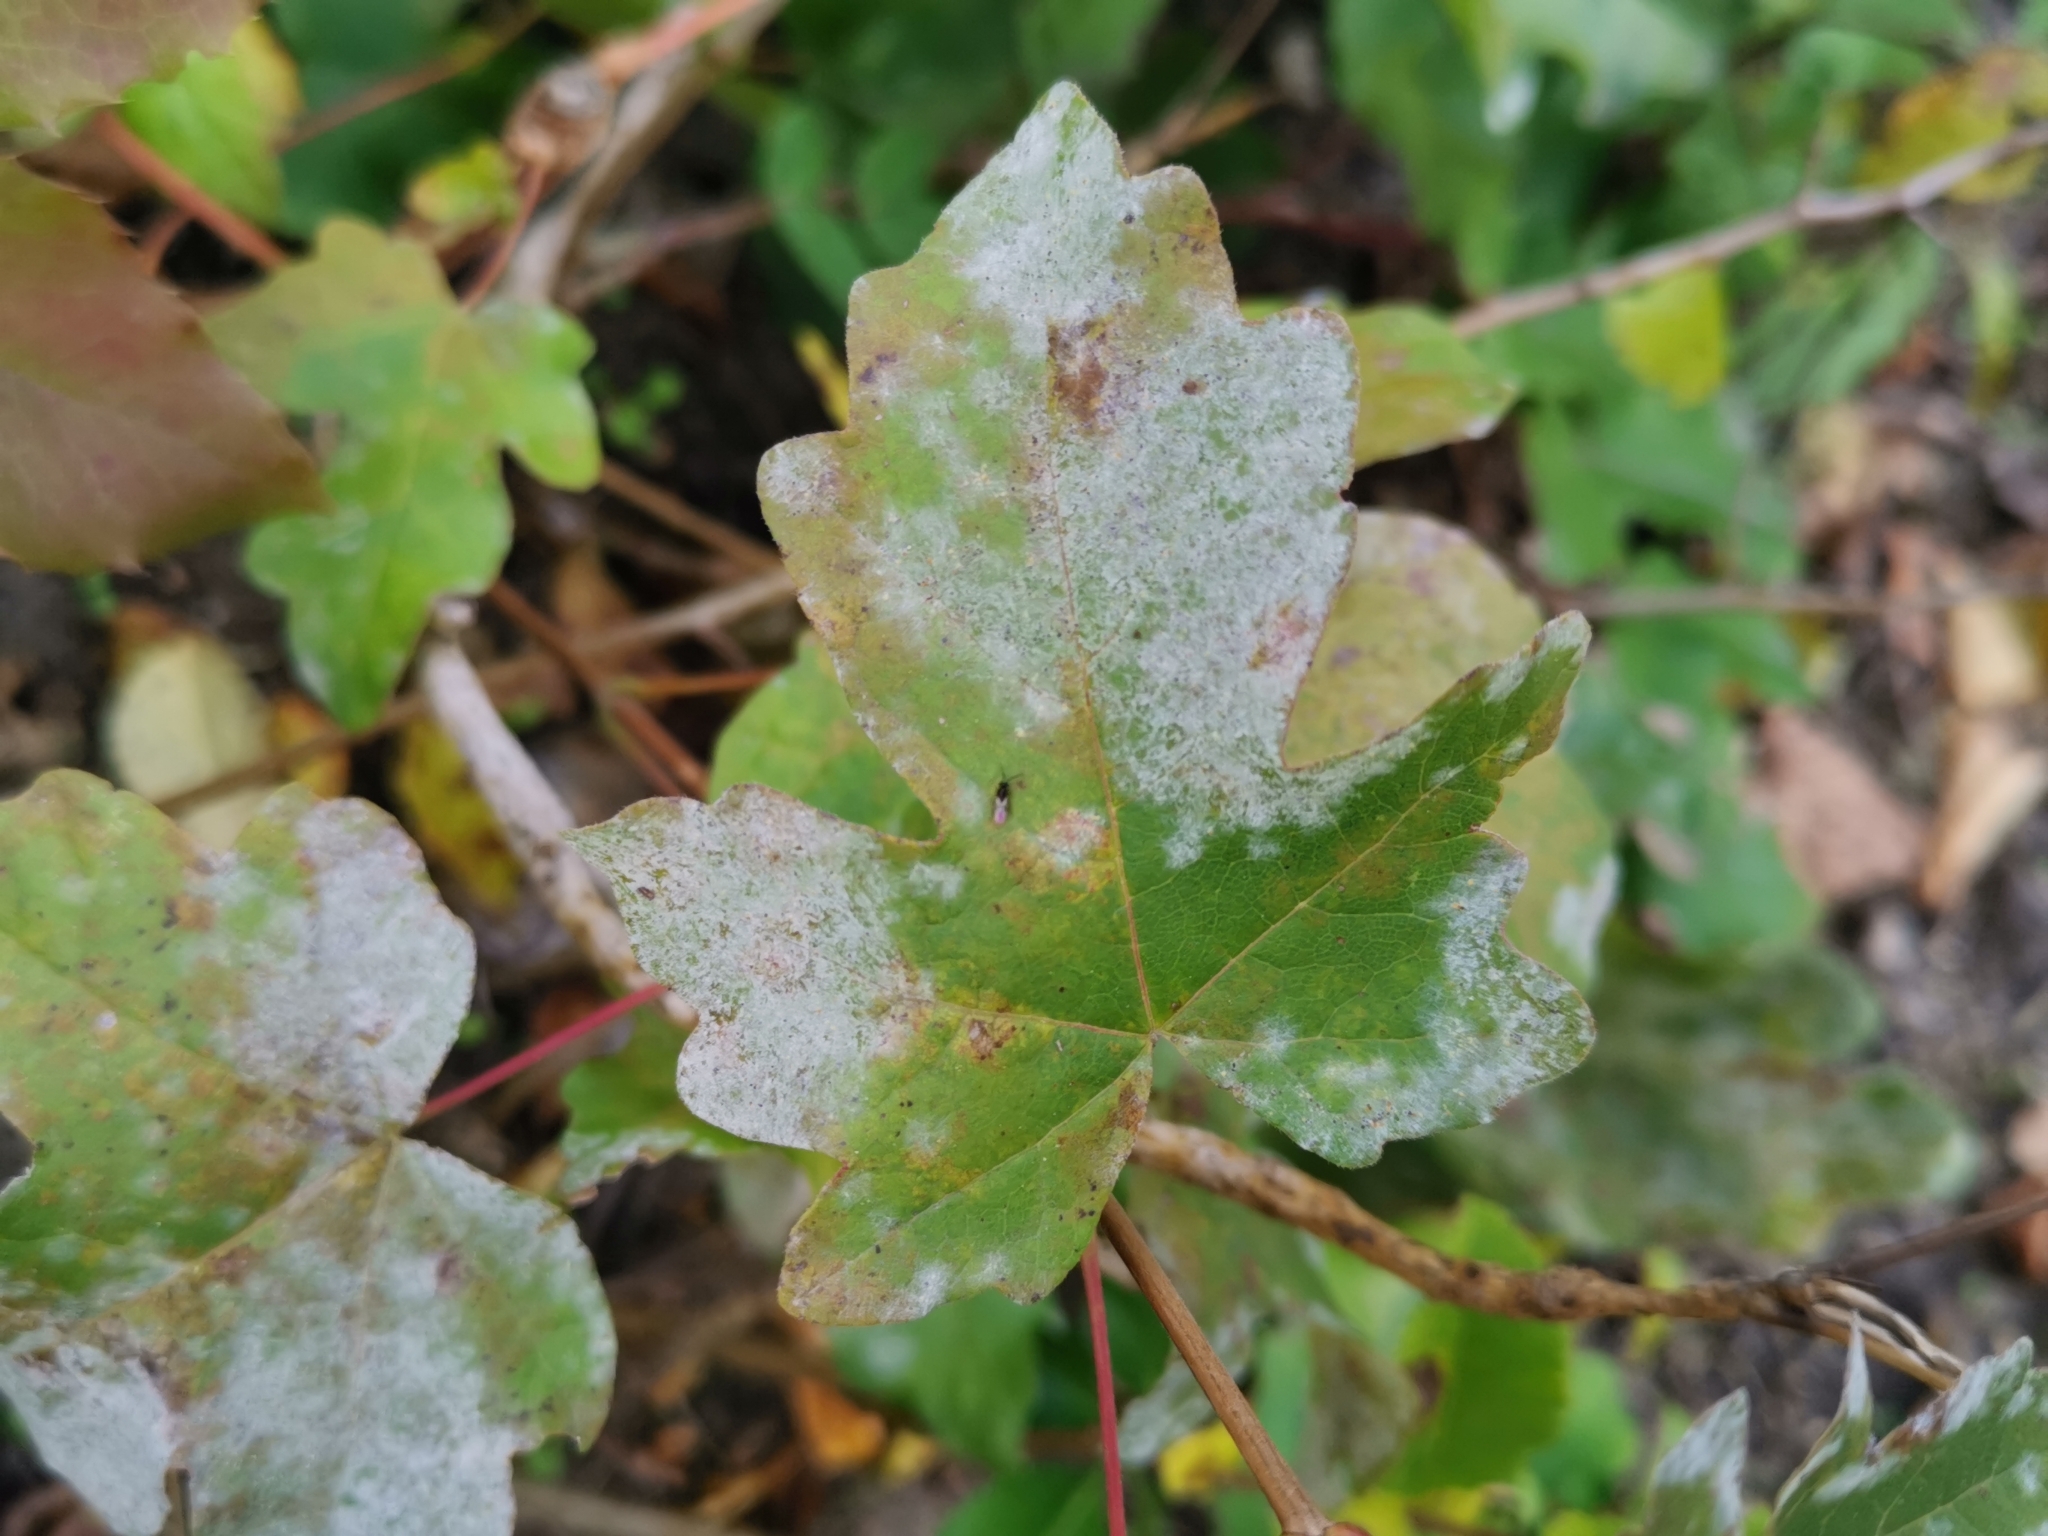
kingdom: Fungi
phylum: Ascomycota
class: Leotiomycetes
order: Helotiales
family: Erysiphaceae
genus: Sawadaea
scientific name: Sawadaea bicornis
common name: Maple mildew
